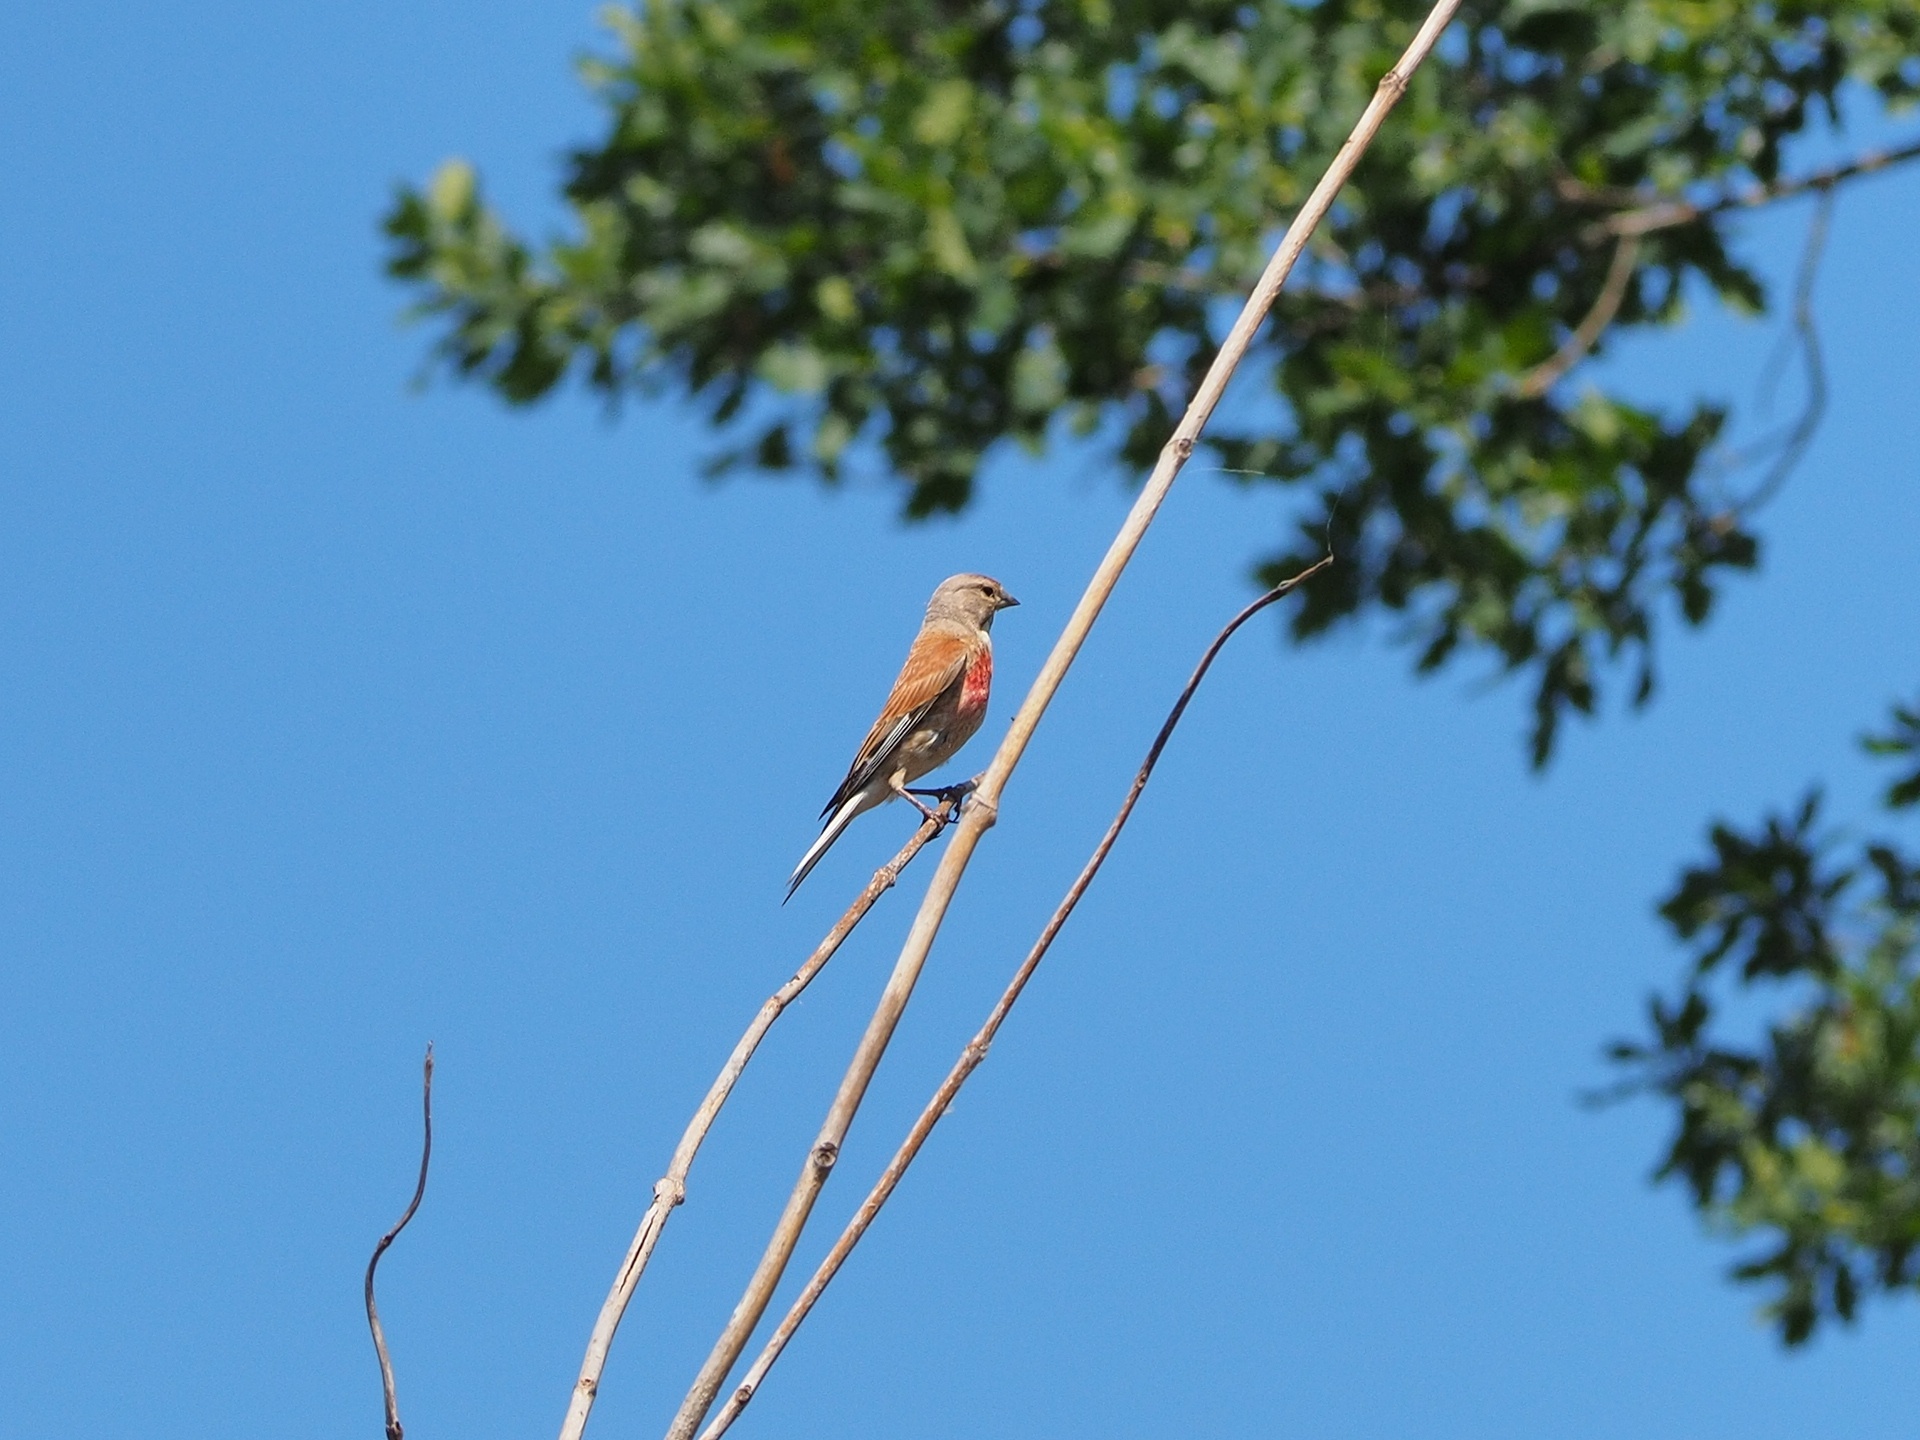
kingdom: Animalia
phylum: Chordata
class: Aves
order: Passeriformes
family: Fringillidae
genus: Linaria
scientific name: Linaria cannabina
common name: Common linnet
